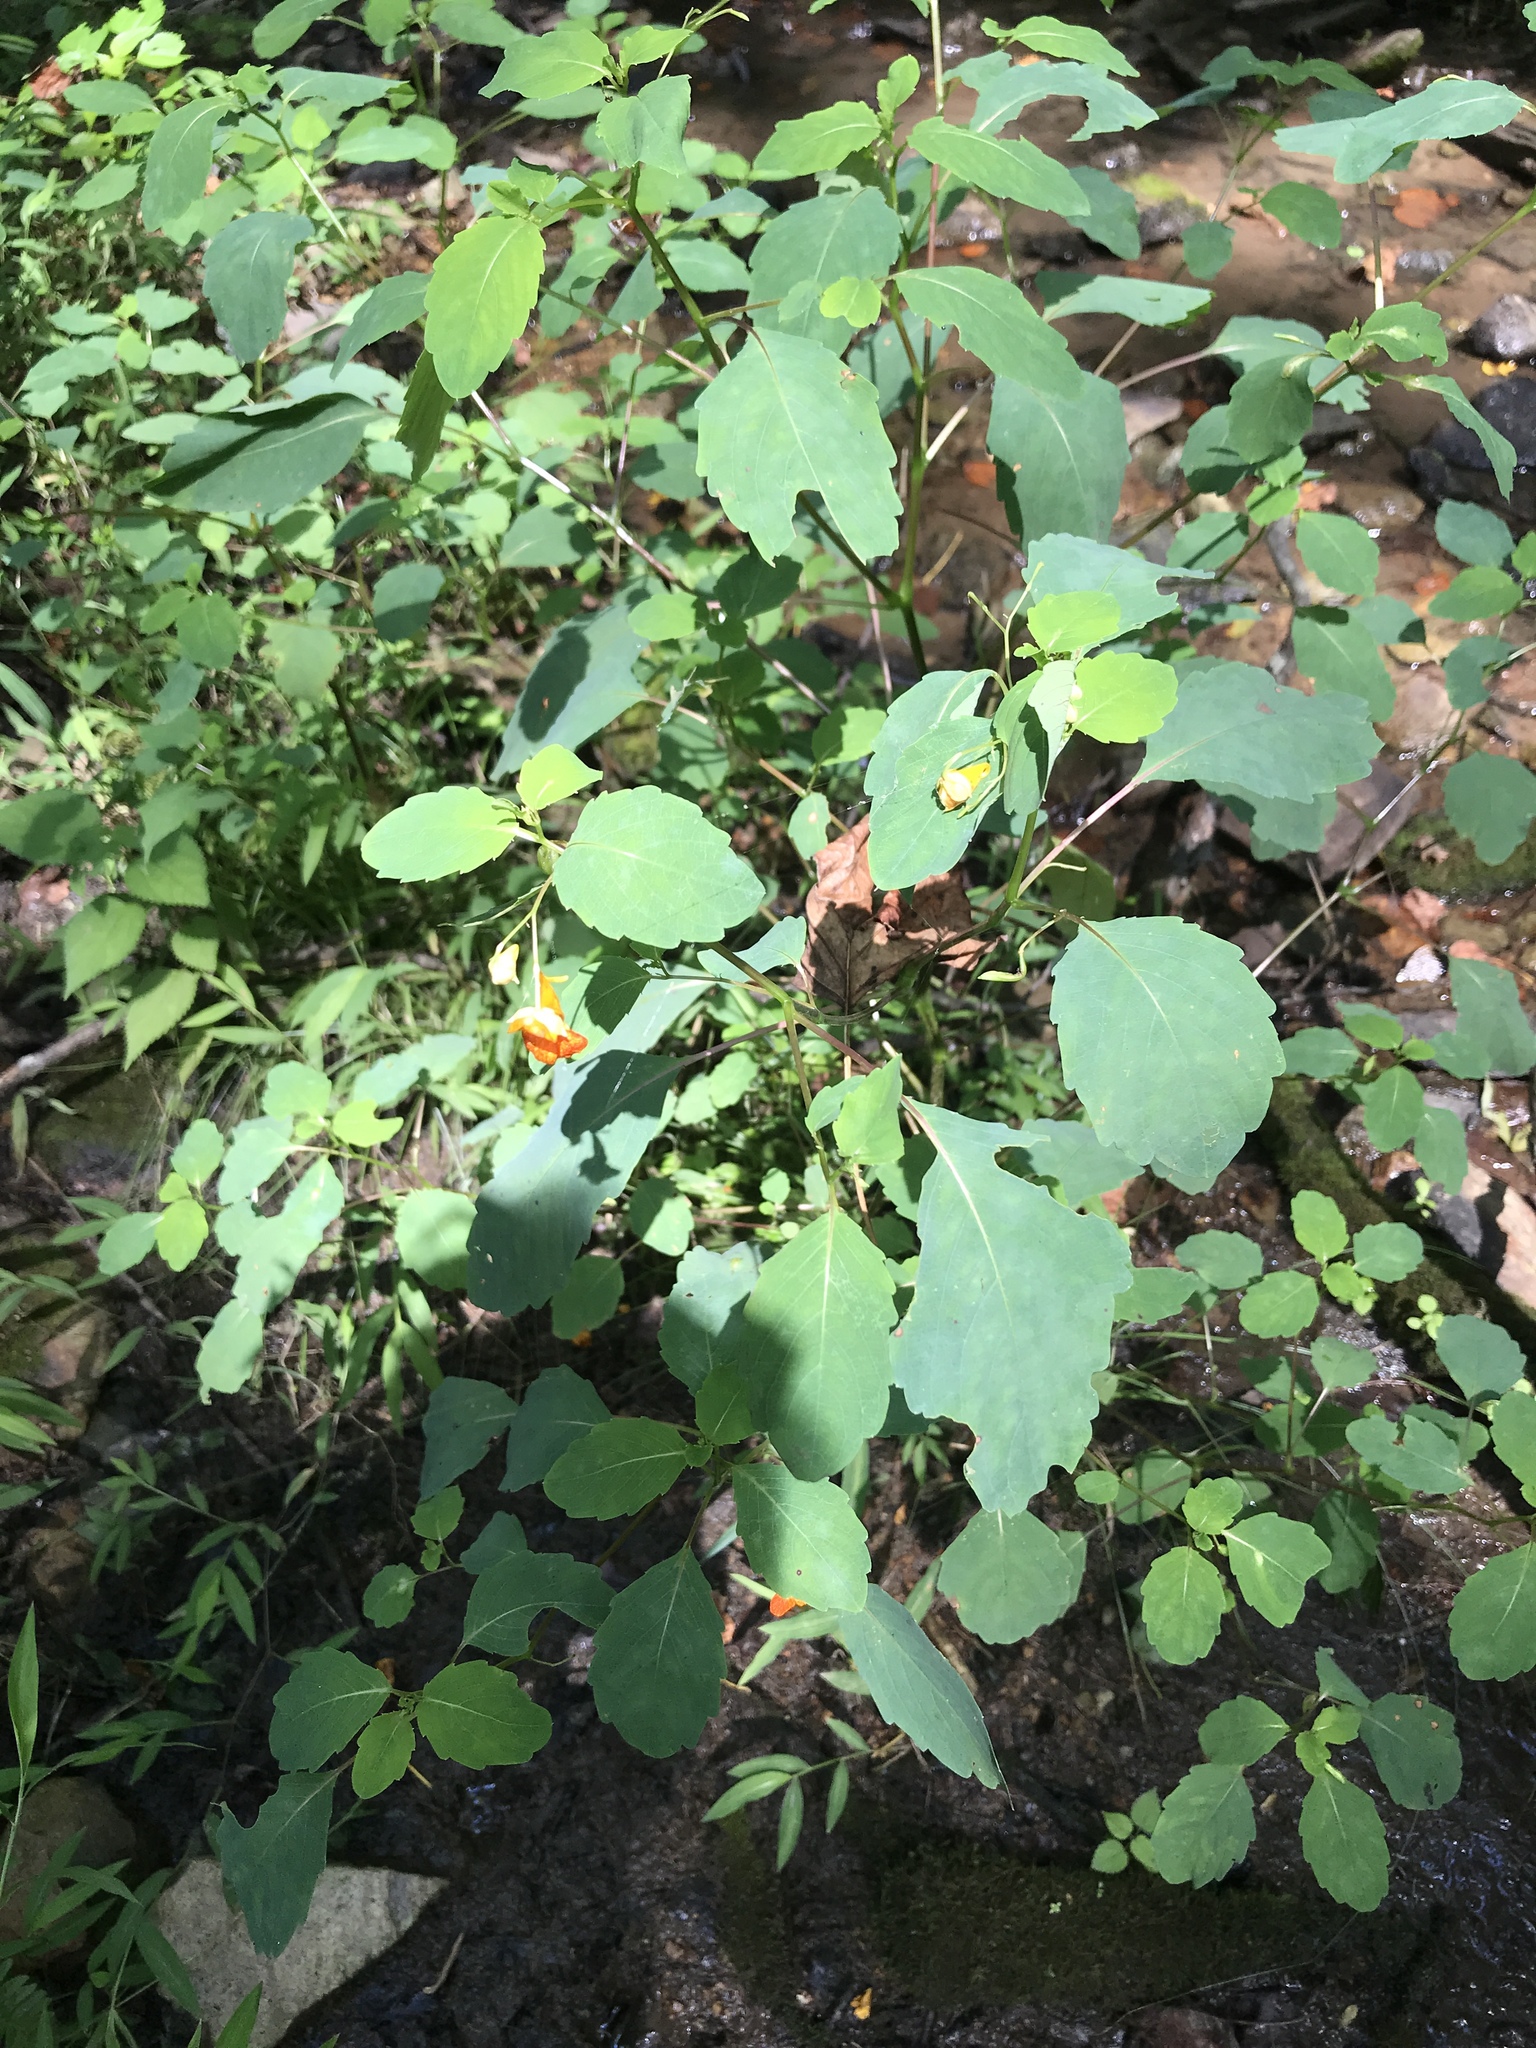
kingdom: Plantae
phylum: Tracheophyta
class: Magnoliopsida
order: Ericales
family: Balsaminaceae
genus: Impatiens
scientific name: Impatiens capensis
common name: Orange balsam
